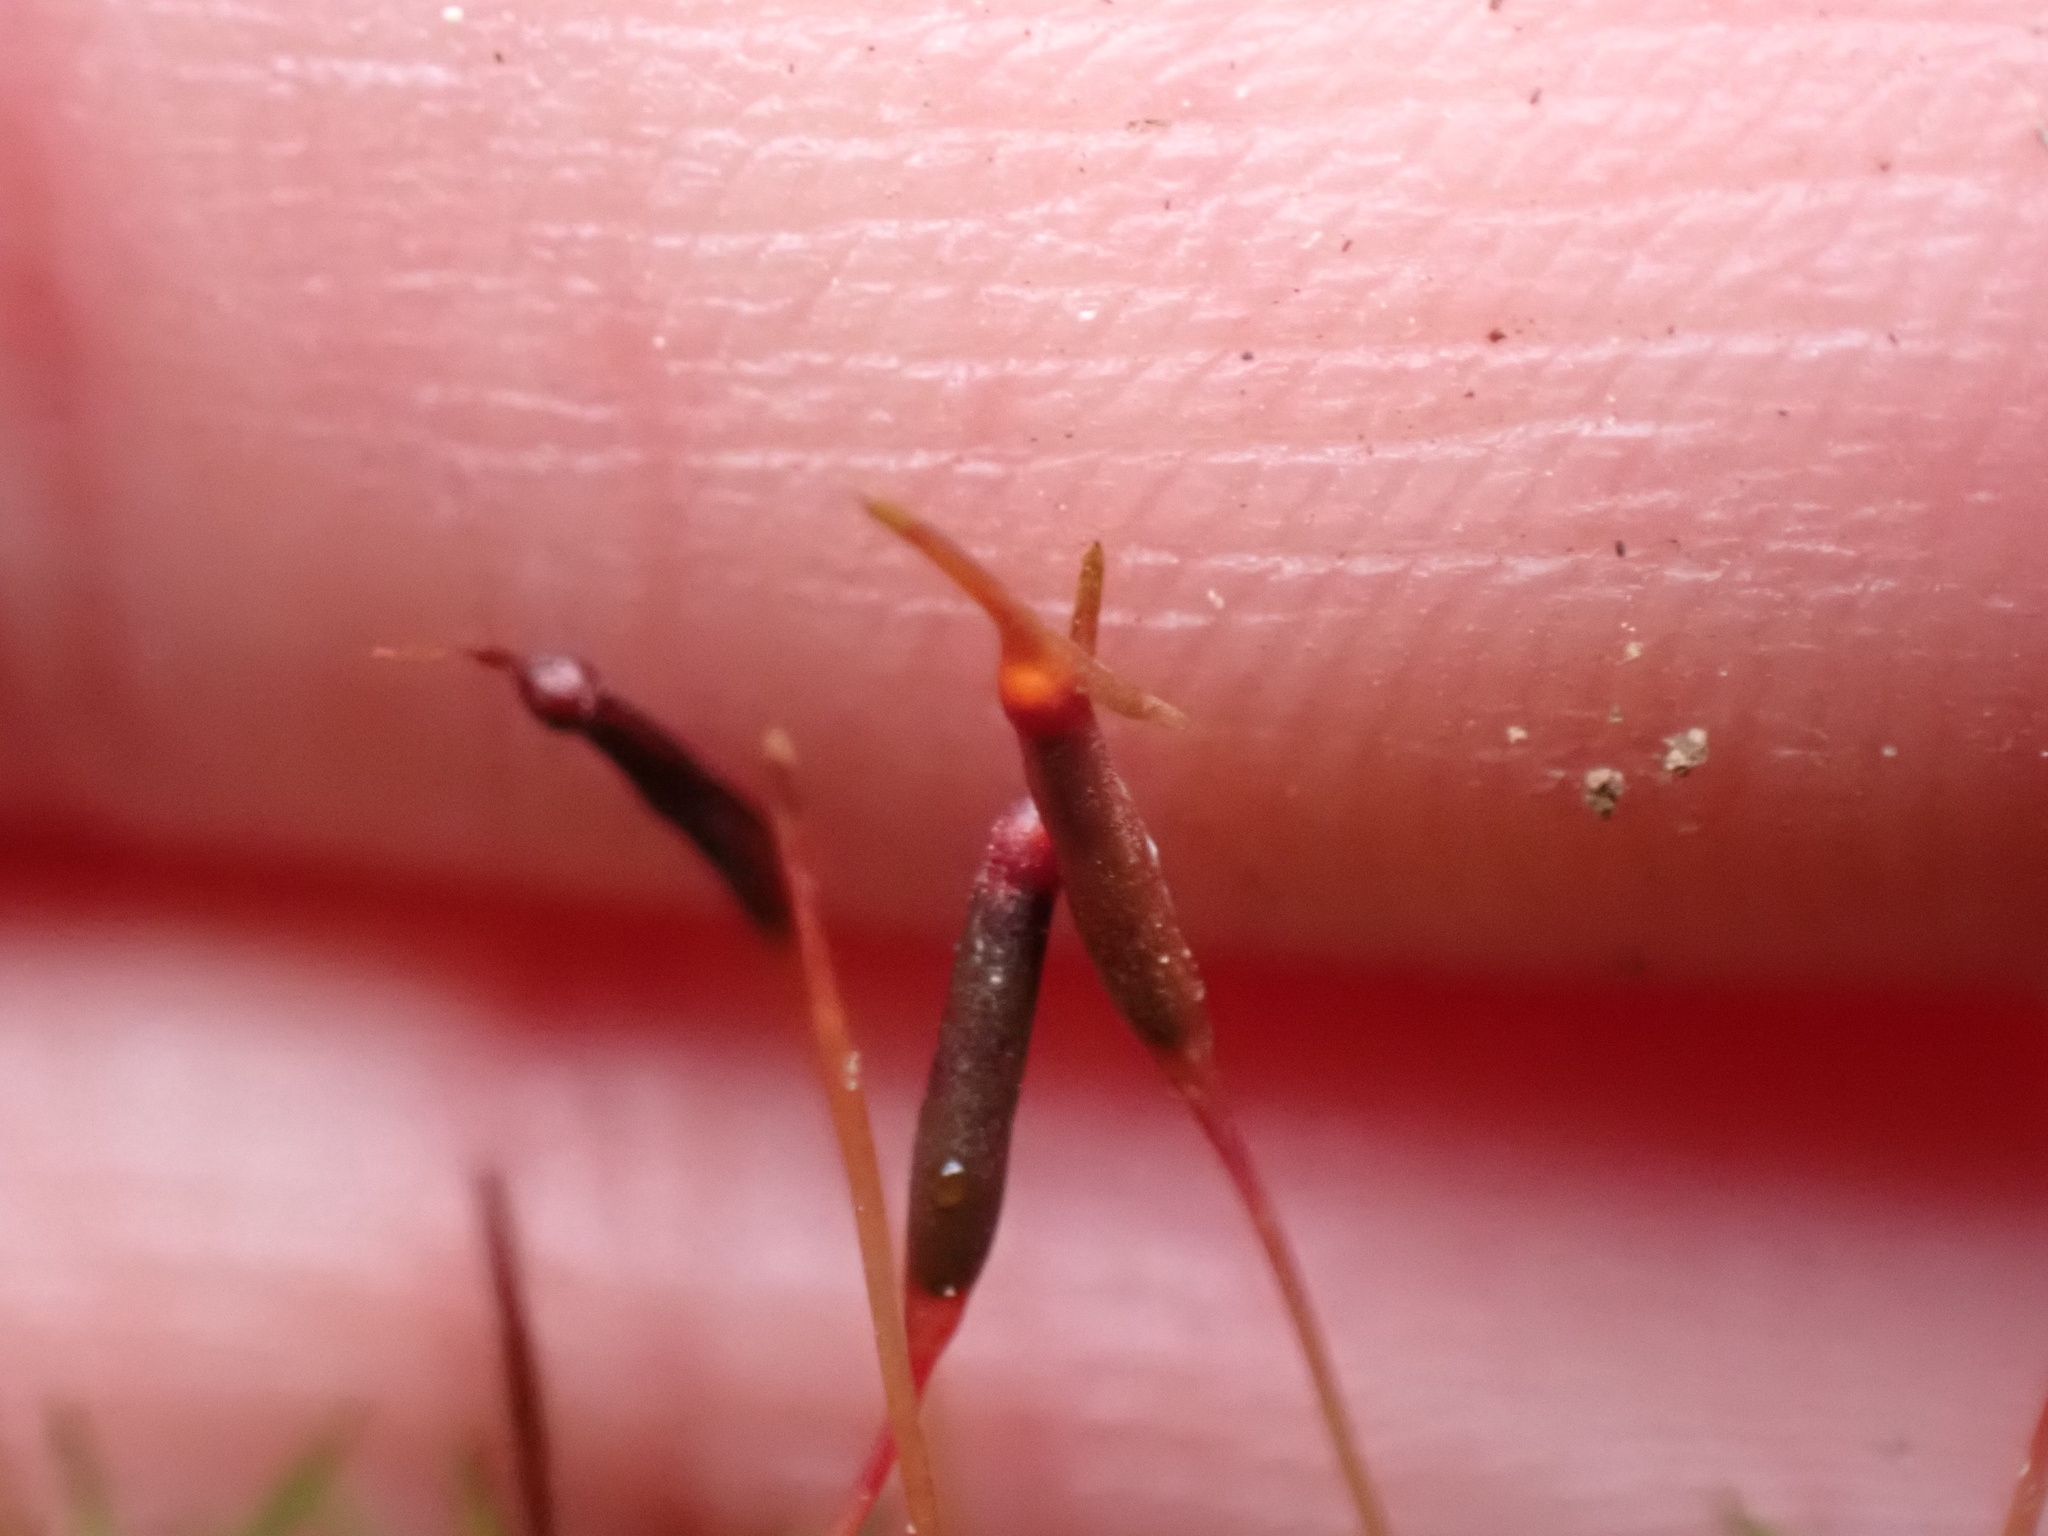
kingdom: Plantae
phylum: Bryophyta
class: Polytrichopsida
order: Polytrichales
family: Polytrichaceae
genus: Atrichum
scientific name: Atrichum angustatum
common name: Lesser smoothcap
